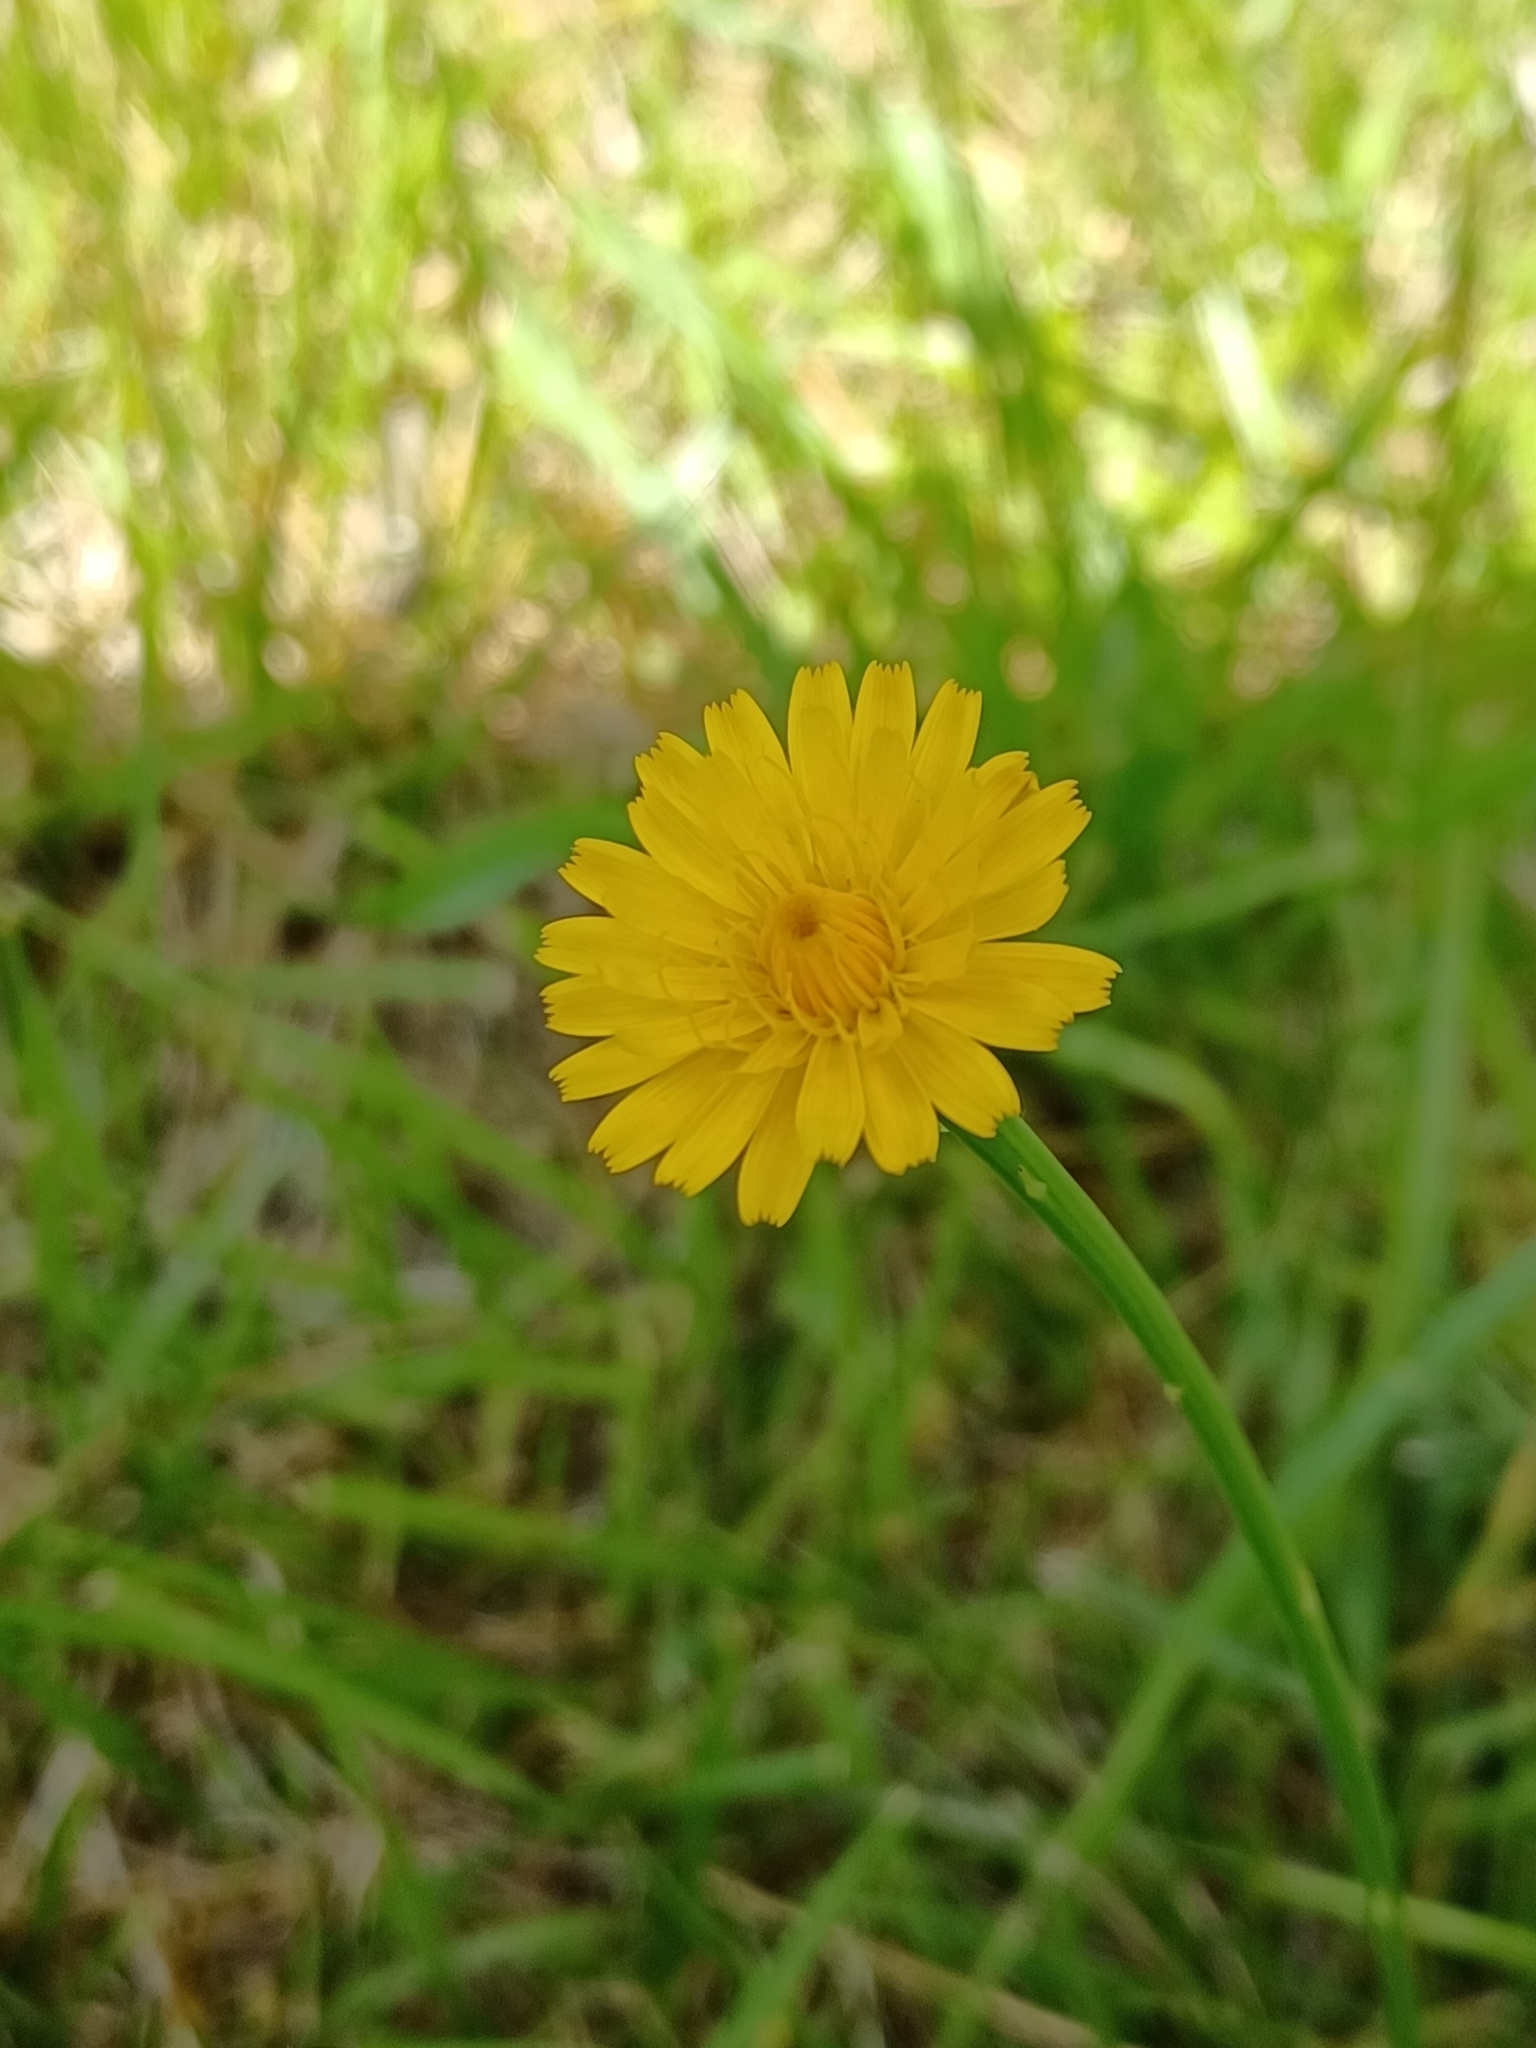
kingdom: Plantae
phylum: Tracheophyta
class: Magnoliopsida
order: Asterales
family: Asteraceae
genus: Hypochaeris
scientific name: Hypochaeris radicata
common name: Flatweed
